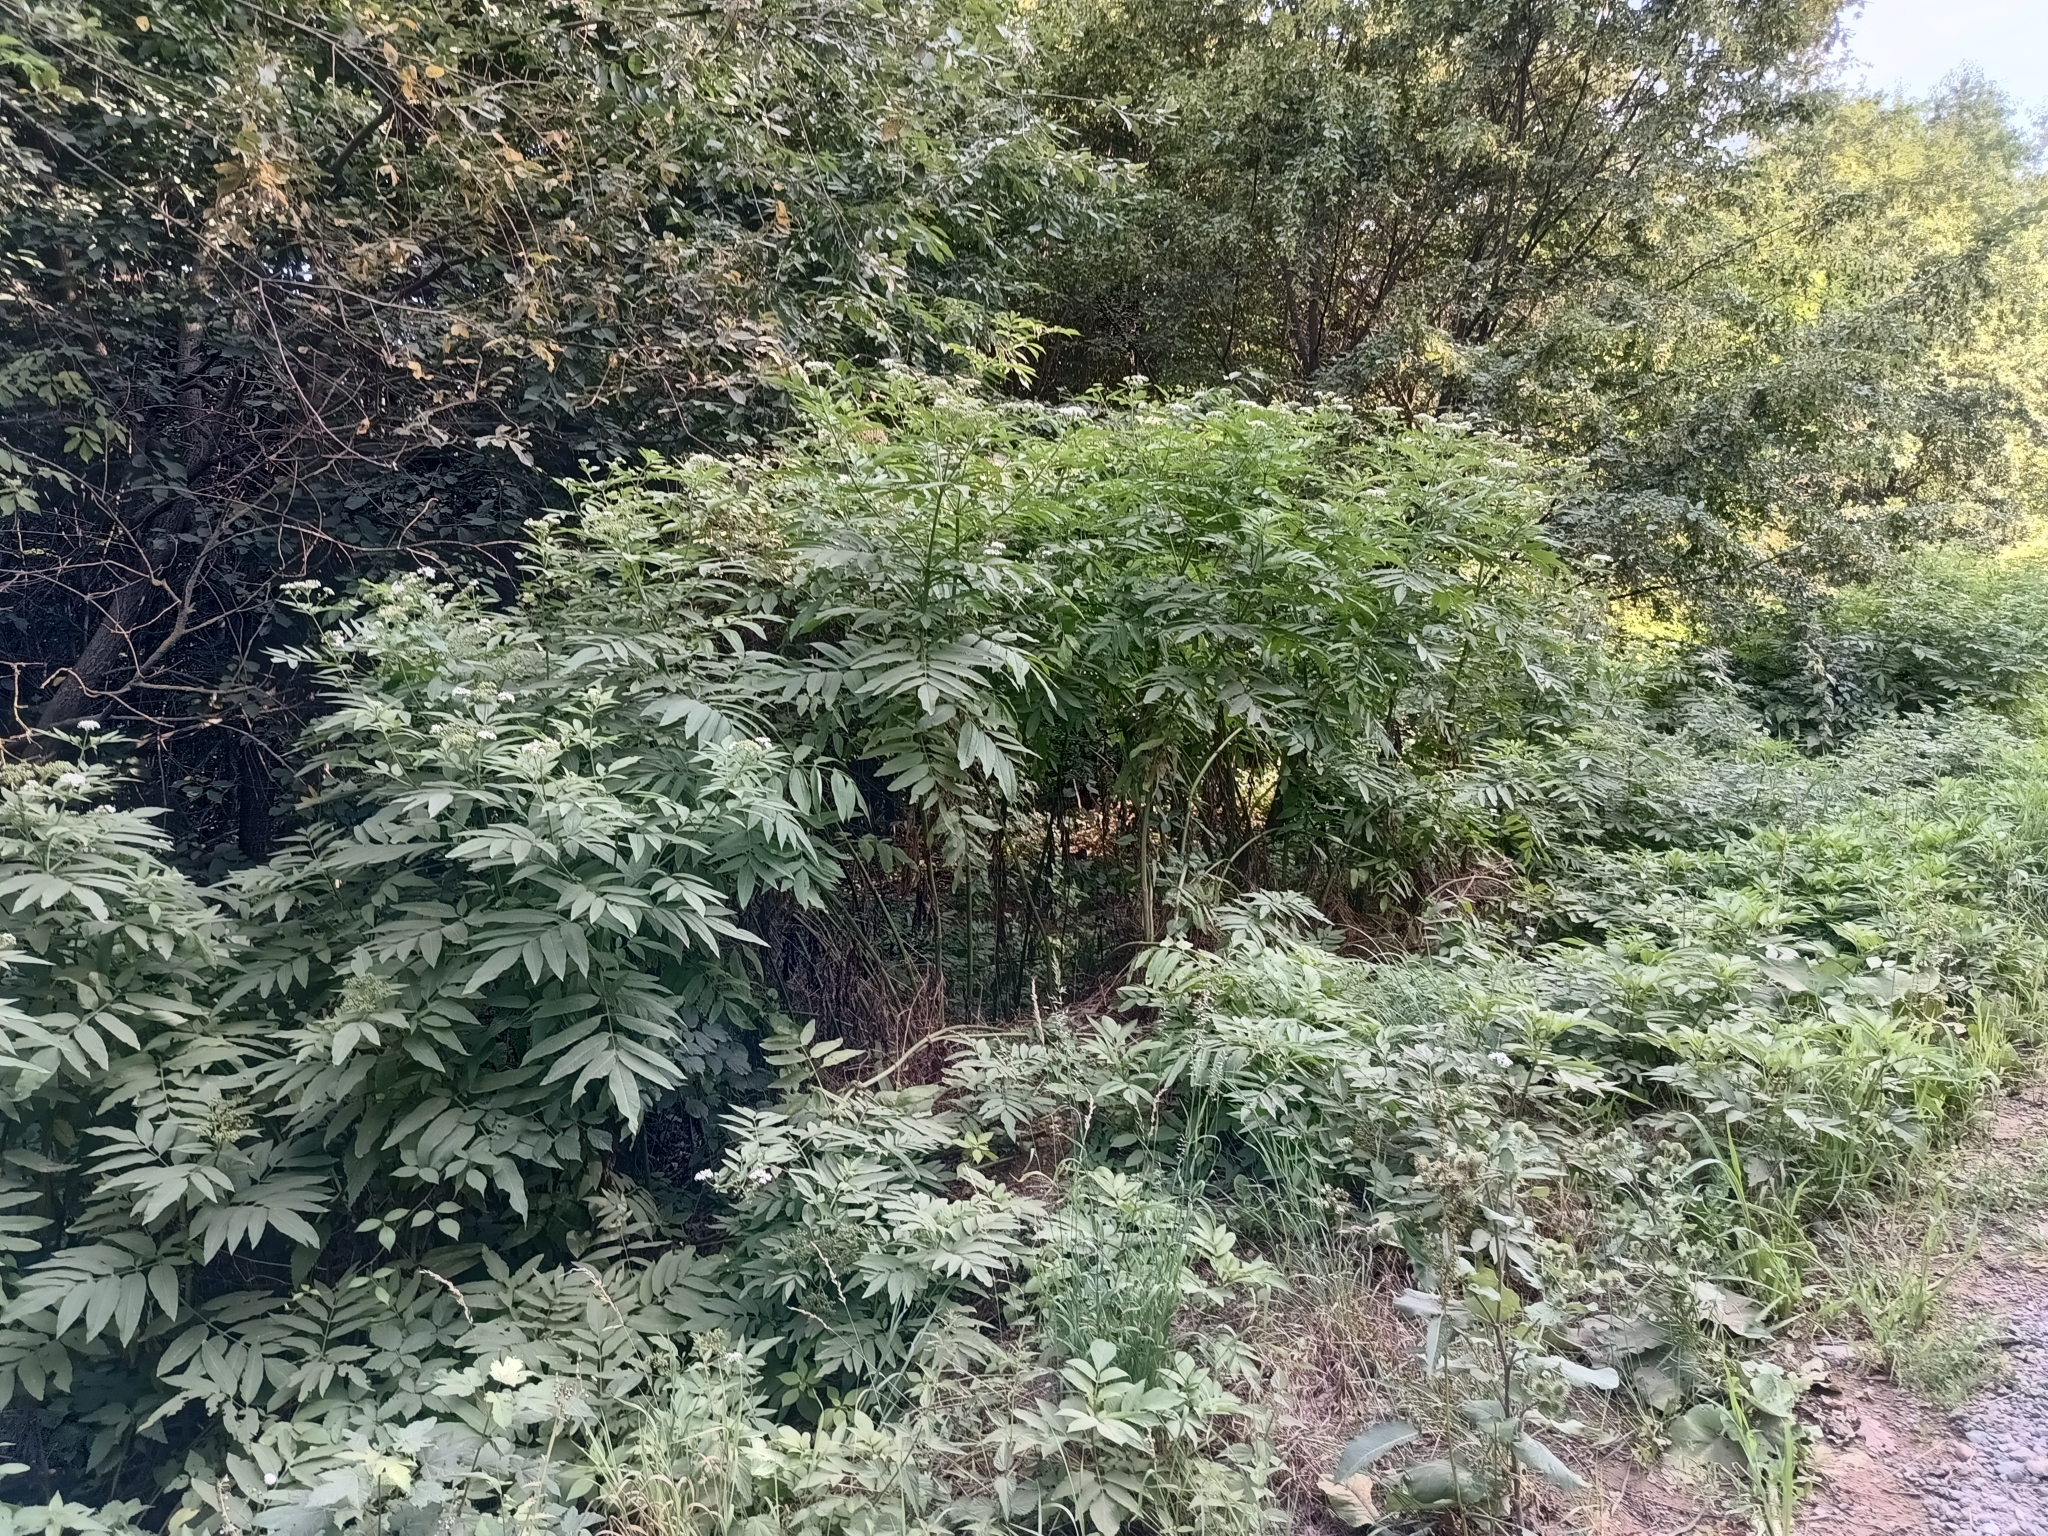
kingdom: Plantae
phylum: Tracheophyta
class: Magnoliopsida
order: Dipsacales
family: Viburnaceae
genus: Sambucus
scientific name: Sambucus ebulus
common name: Dwarf elder
